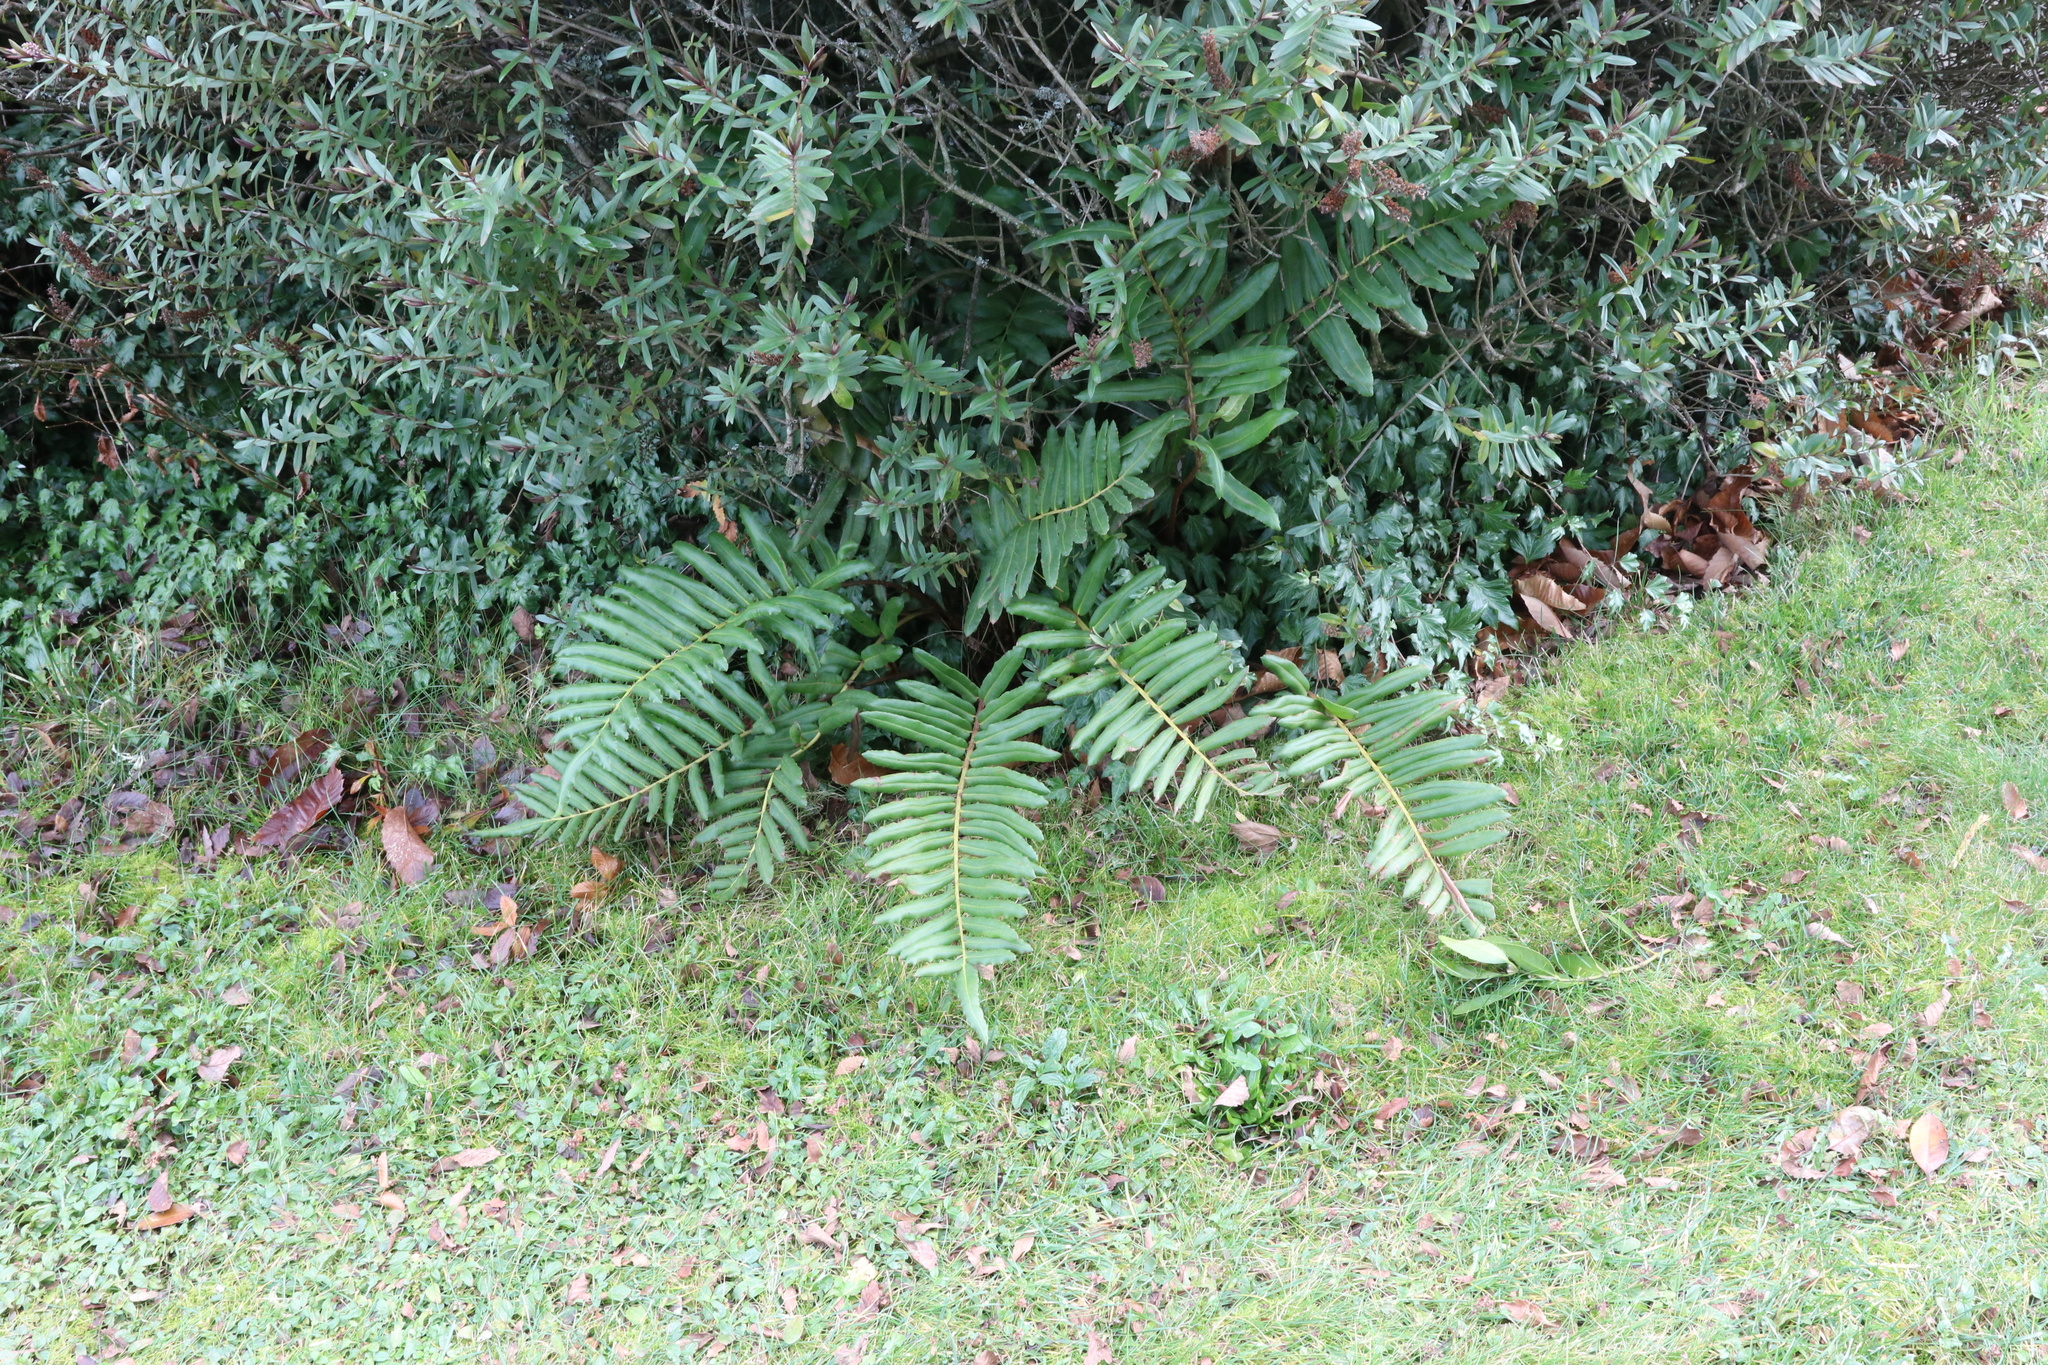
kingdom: Plantae
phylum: Tracheophyta
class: Polypodiopsida
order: Polypodiales
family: Blechnaceae
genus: Parablechnum
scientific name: Parablechnum chilense
